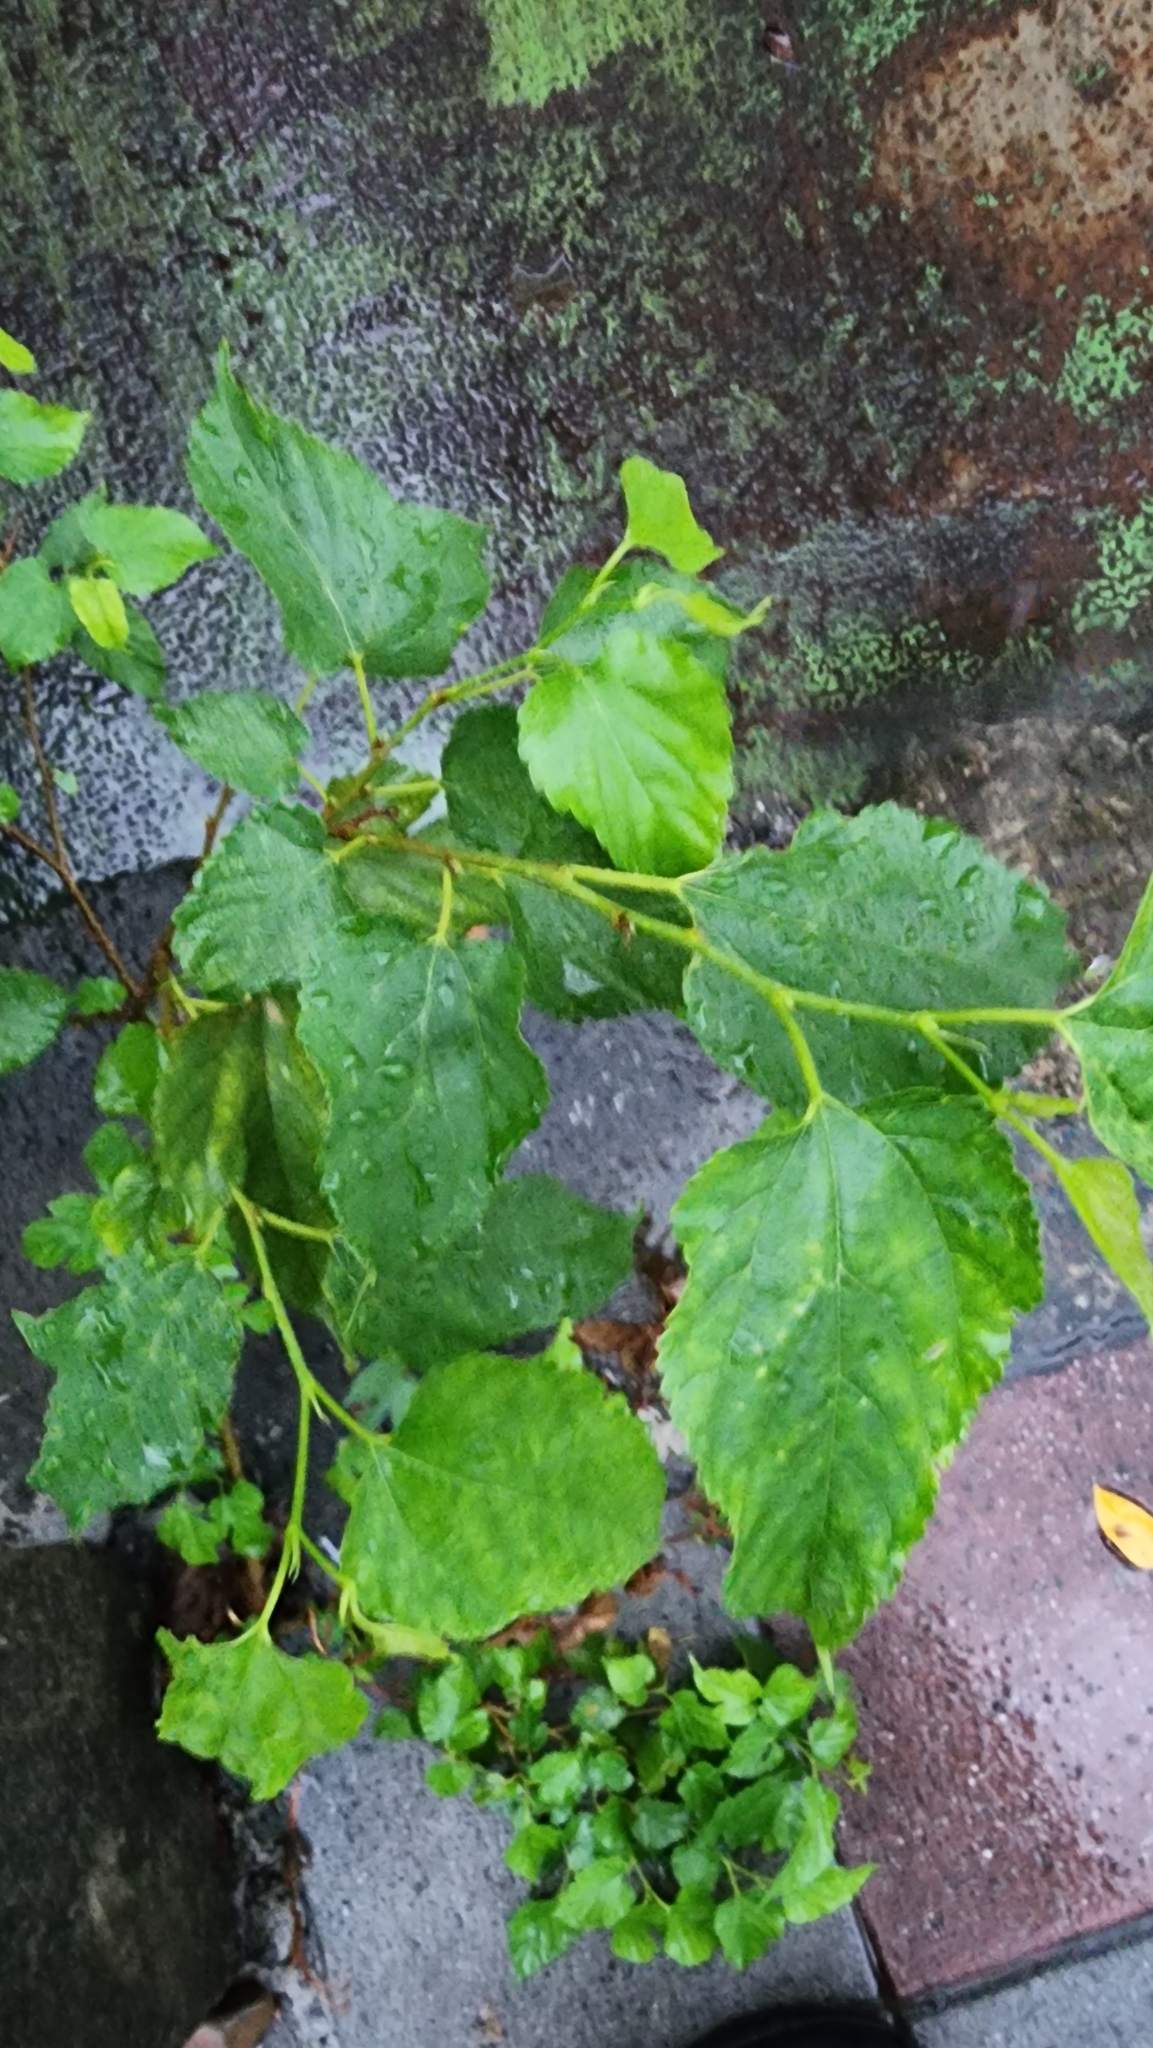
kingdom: Plantae
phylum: Tracheophyta
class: Magnoliopsida
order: Rosales
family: Moraceae
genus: Morus
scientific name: Morus indica
